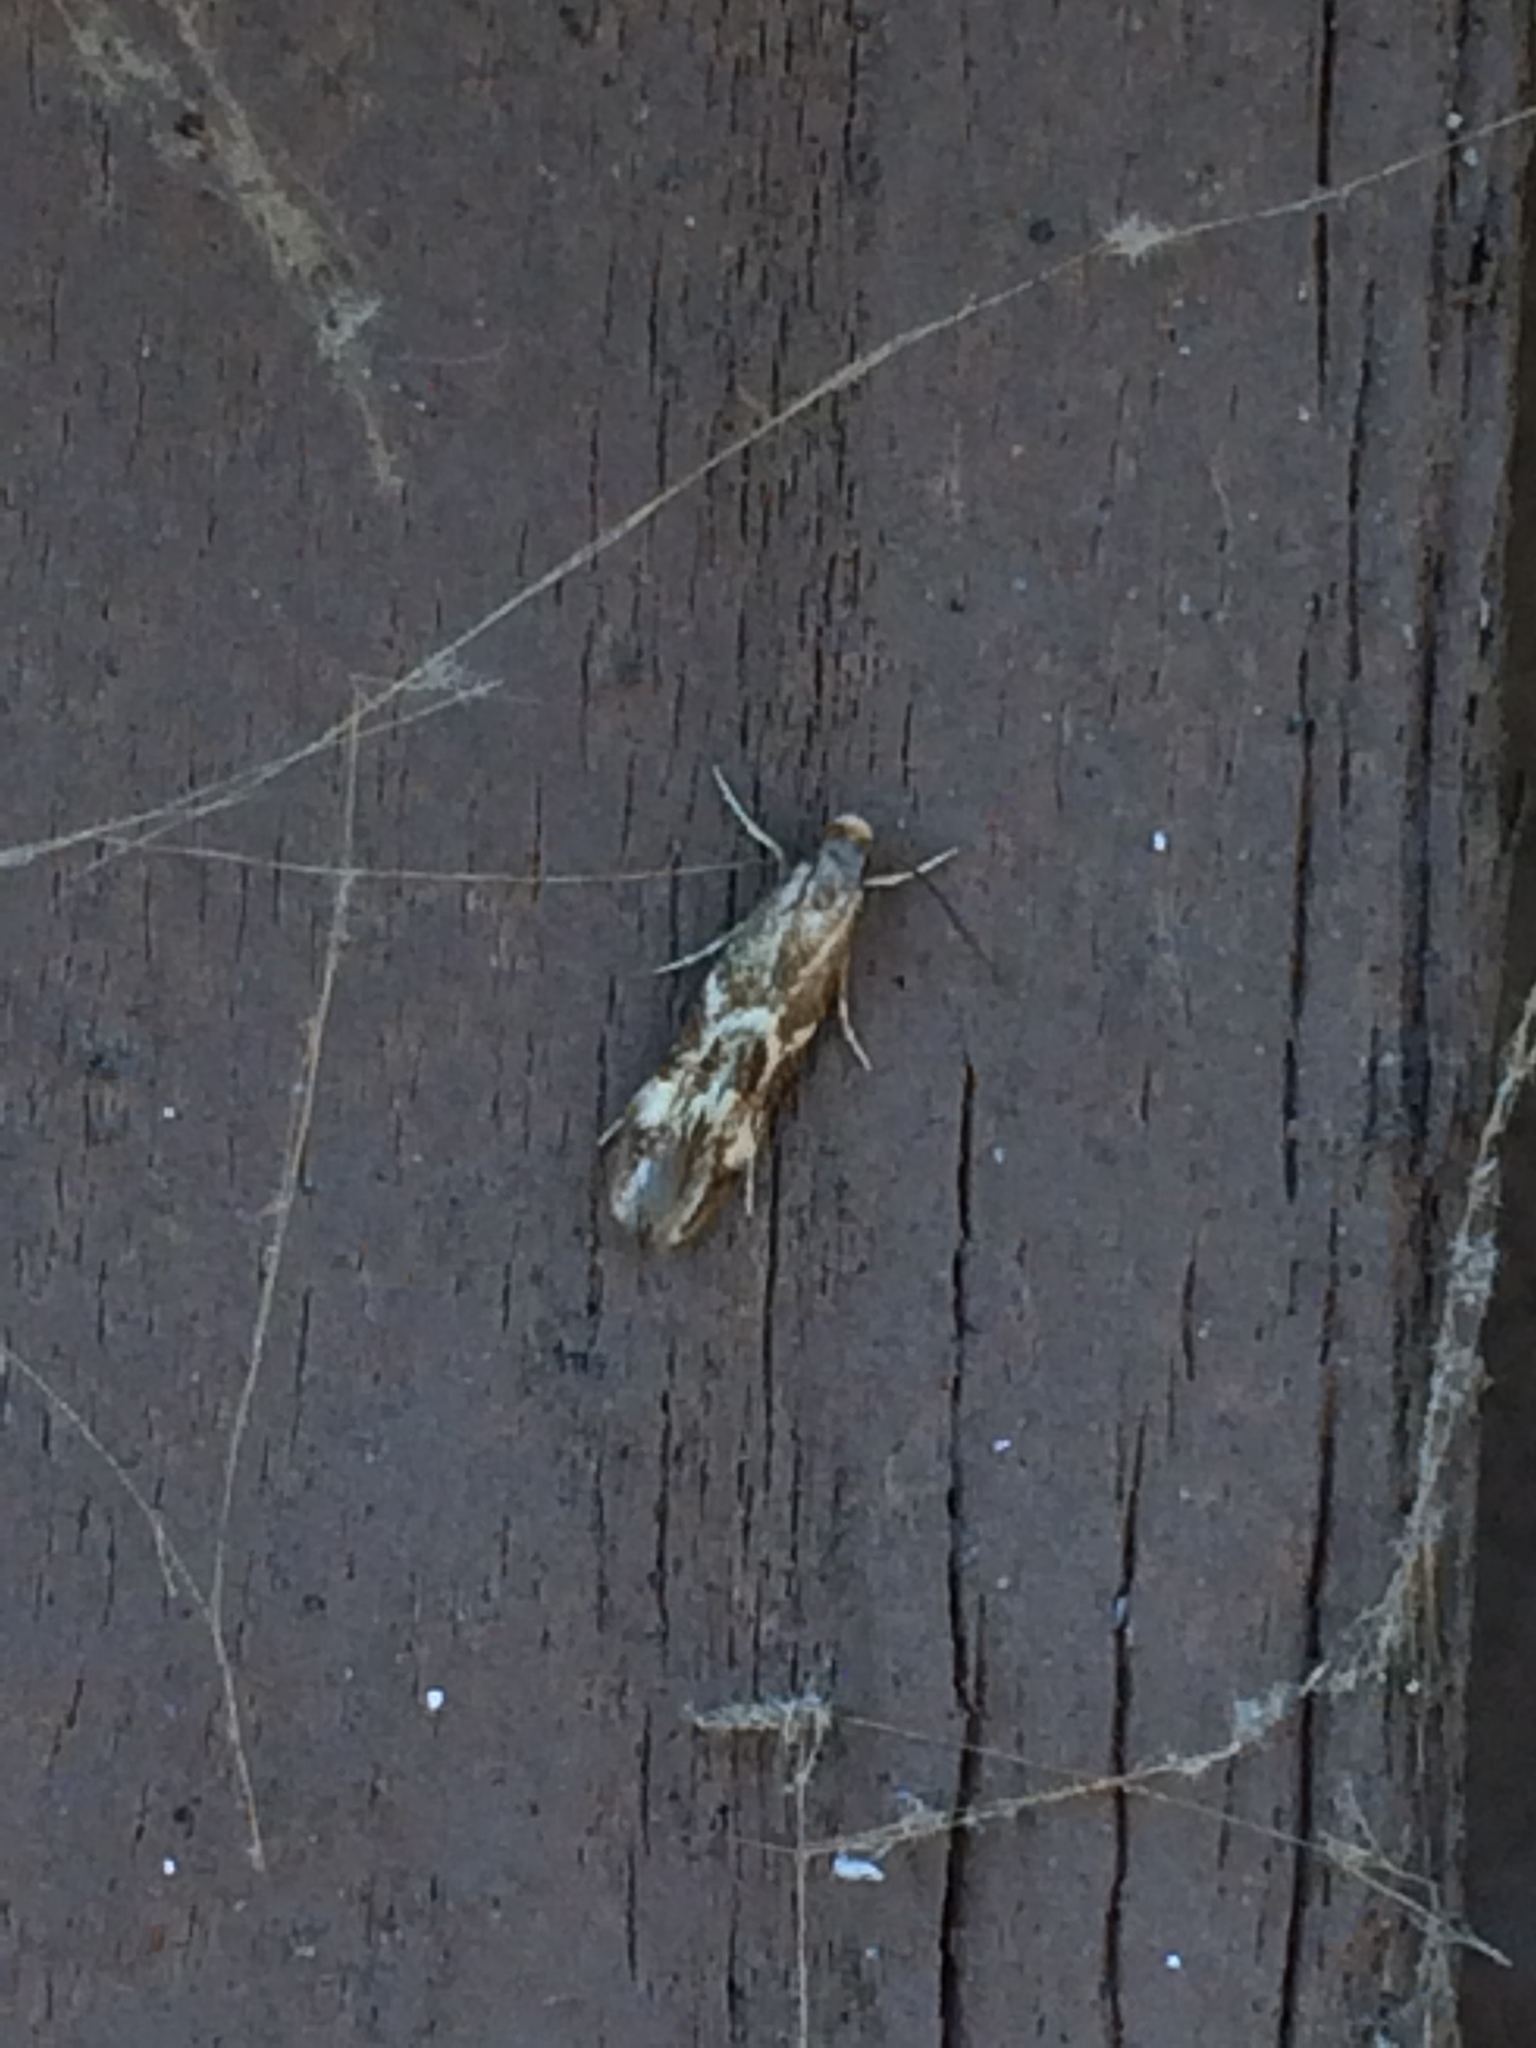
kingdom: Animalia
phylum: Arthropoda
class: Insecta
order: Lepidoptera
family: Tineidae
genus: Oinophila
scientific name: Oinophila v-flava
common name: Yellow v moth
